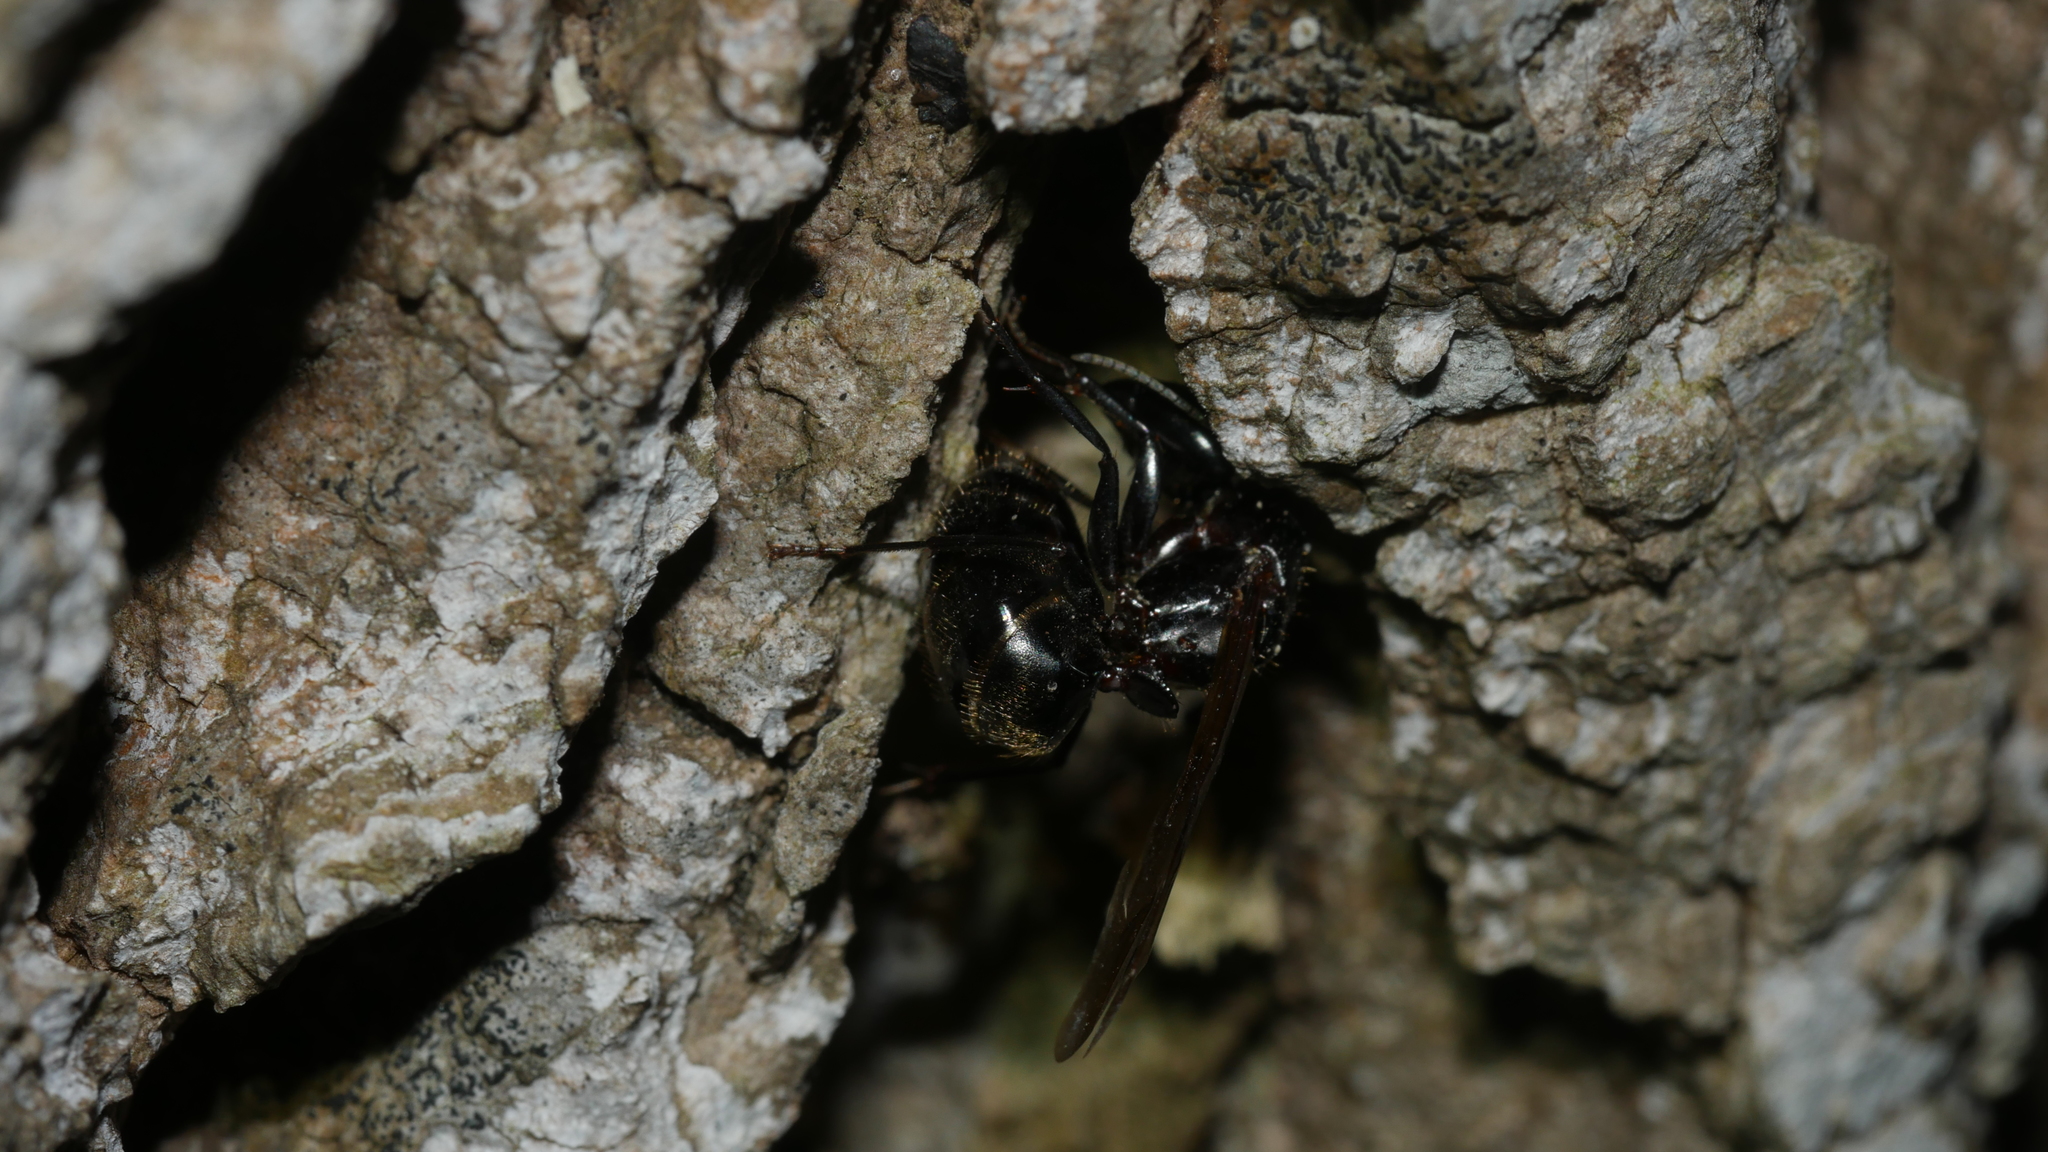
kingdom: Animalia
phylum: Arthropoda
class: Insecta
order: Hymenoptera
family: Formicidae
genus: Camponotus
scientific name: Camponotus pennsylvanicus
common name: Black carpenter ant
